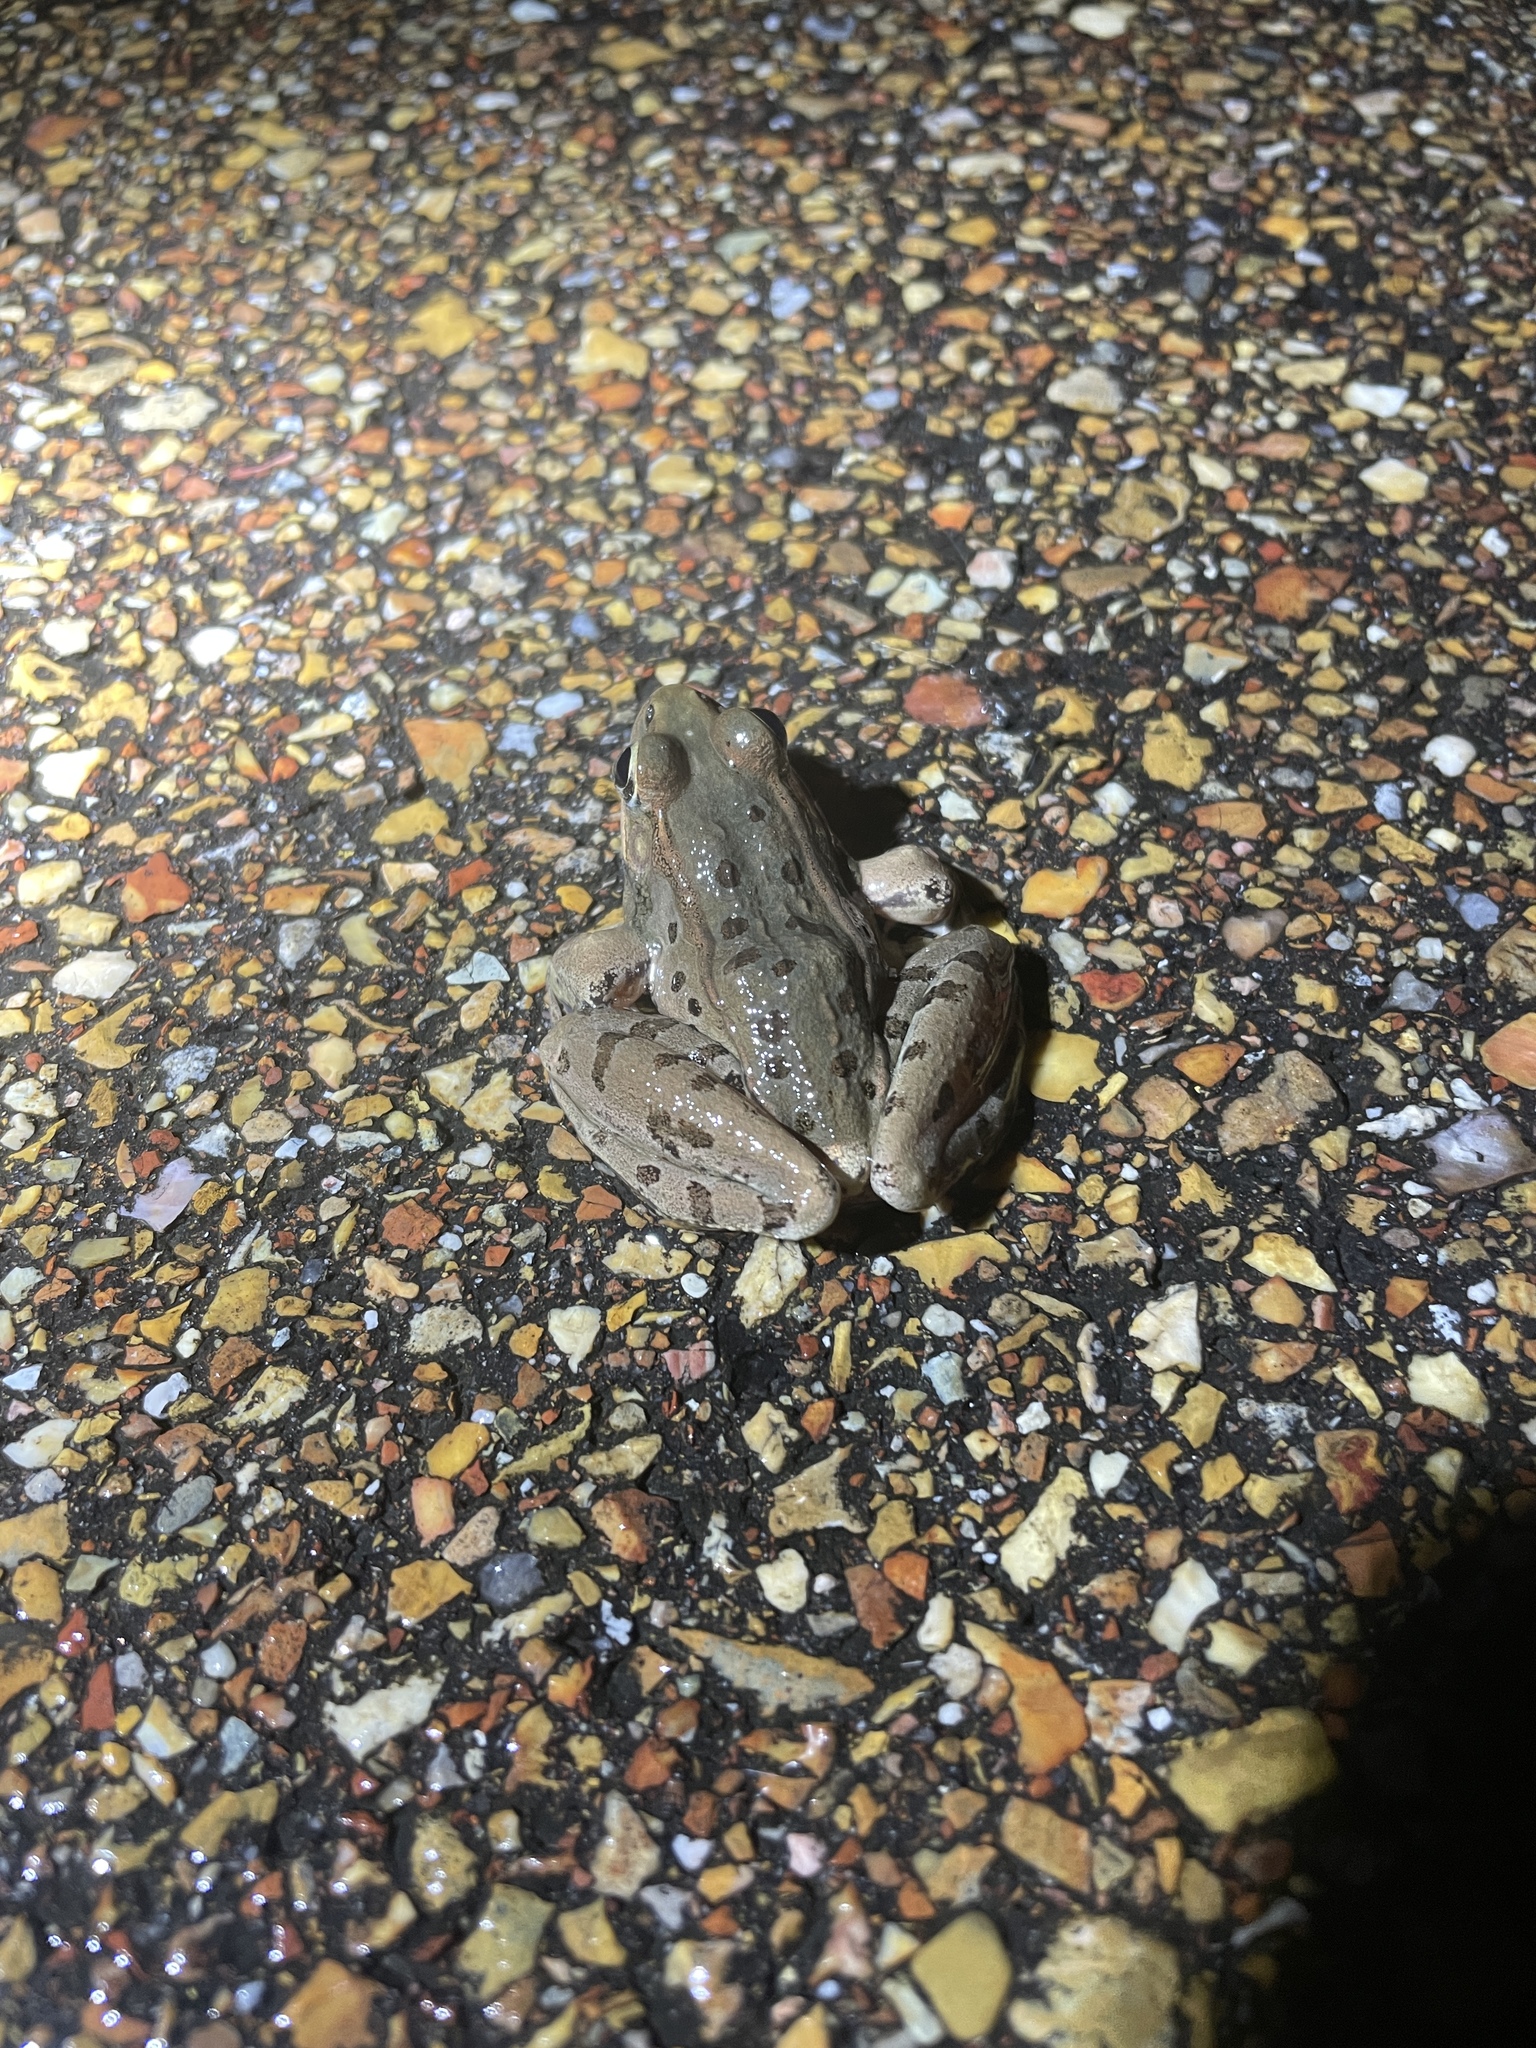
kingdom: Animalia
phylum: Chordata
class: Amphibia
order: Anura
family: Ranidae
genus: Lithobates
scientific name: Lithobates sphenocephalus
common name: Southern leopard frog
